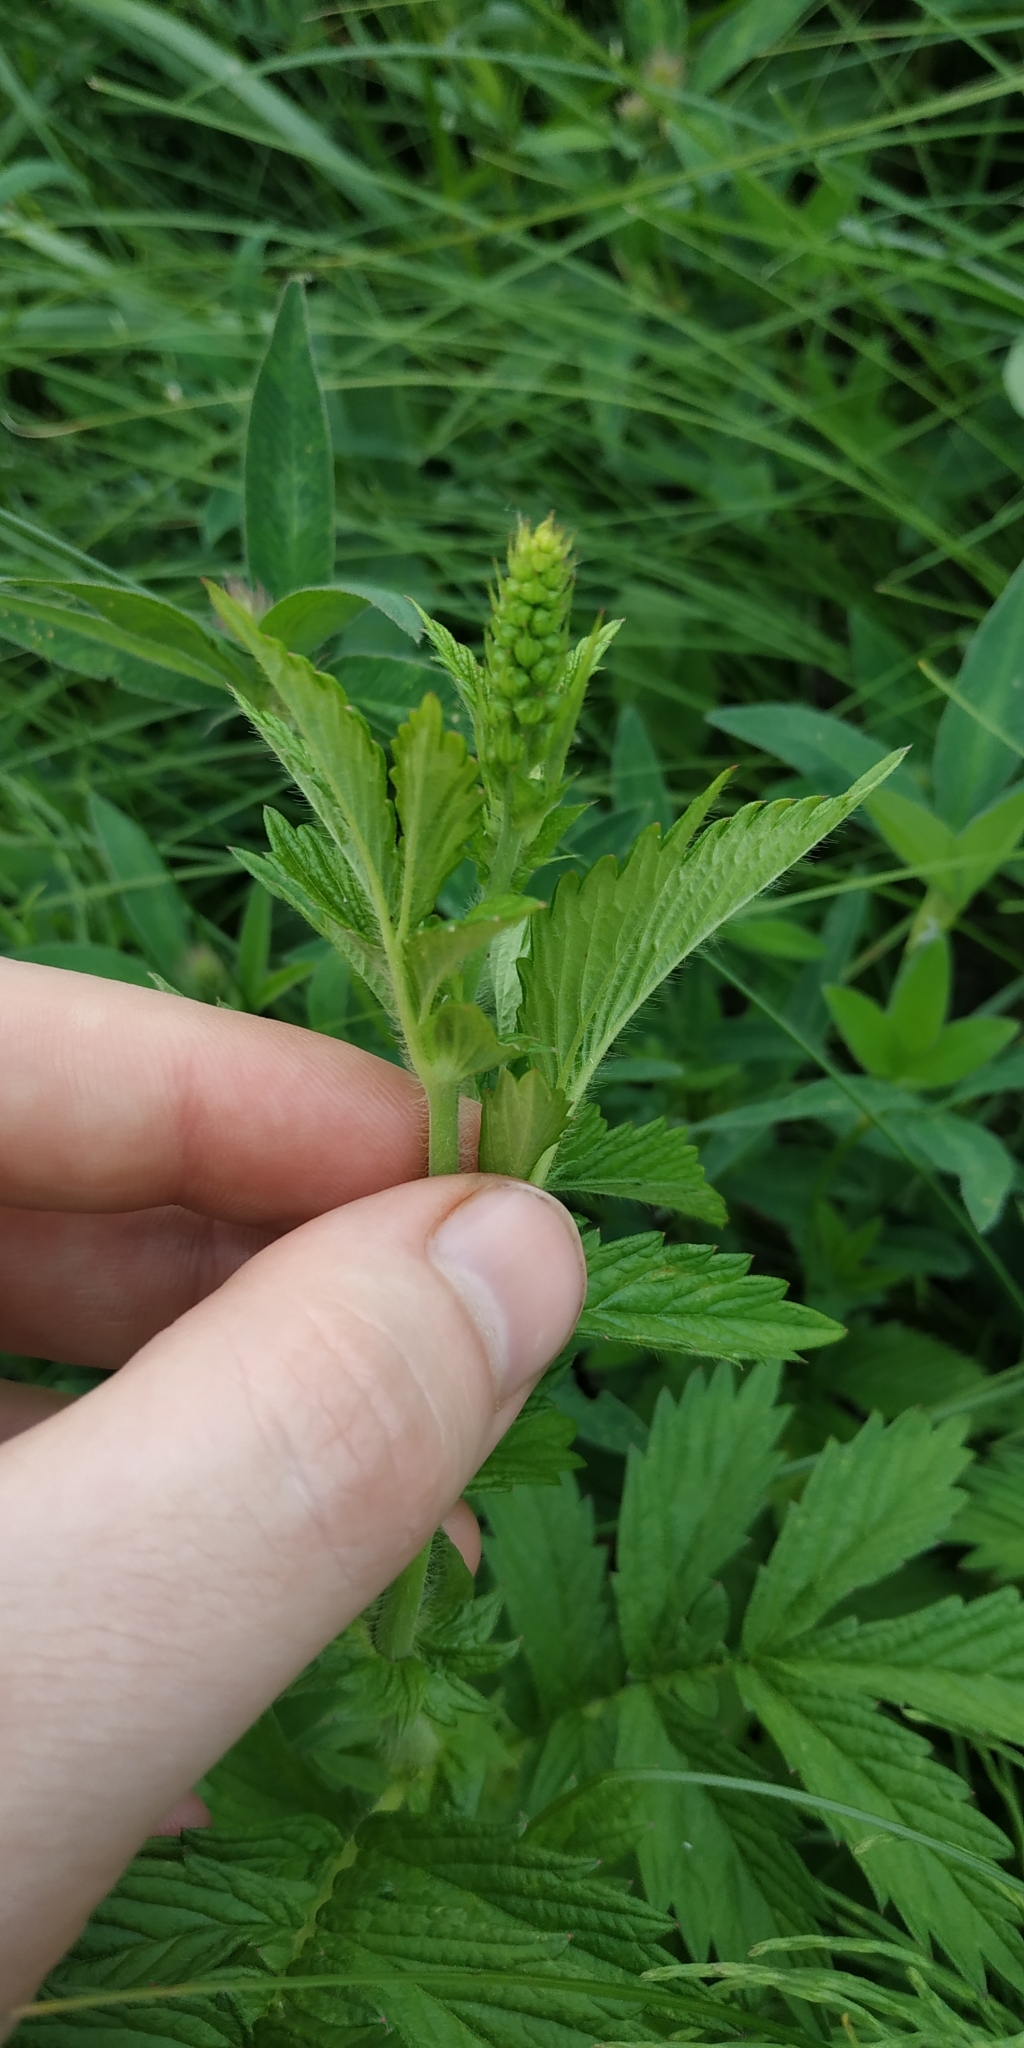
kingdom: Plantae
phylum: Tracheophyta
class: Magnoliopsida
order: Rosales
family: Rosaceae
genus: Agrimonia
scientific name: Agrimonia pilosa
